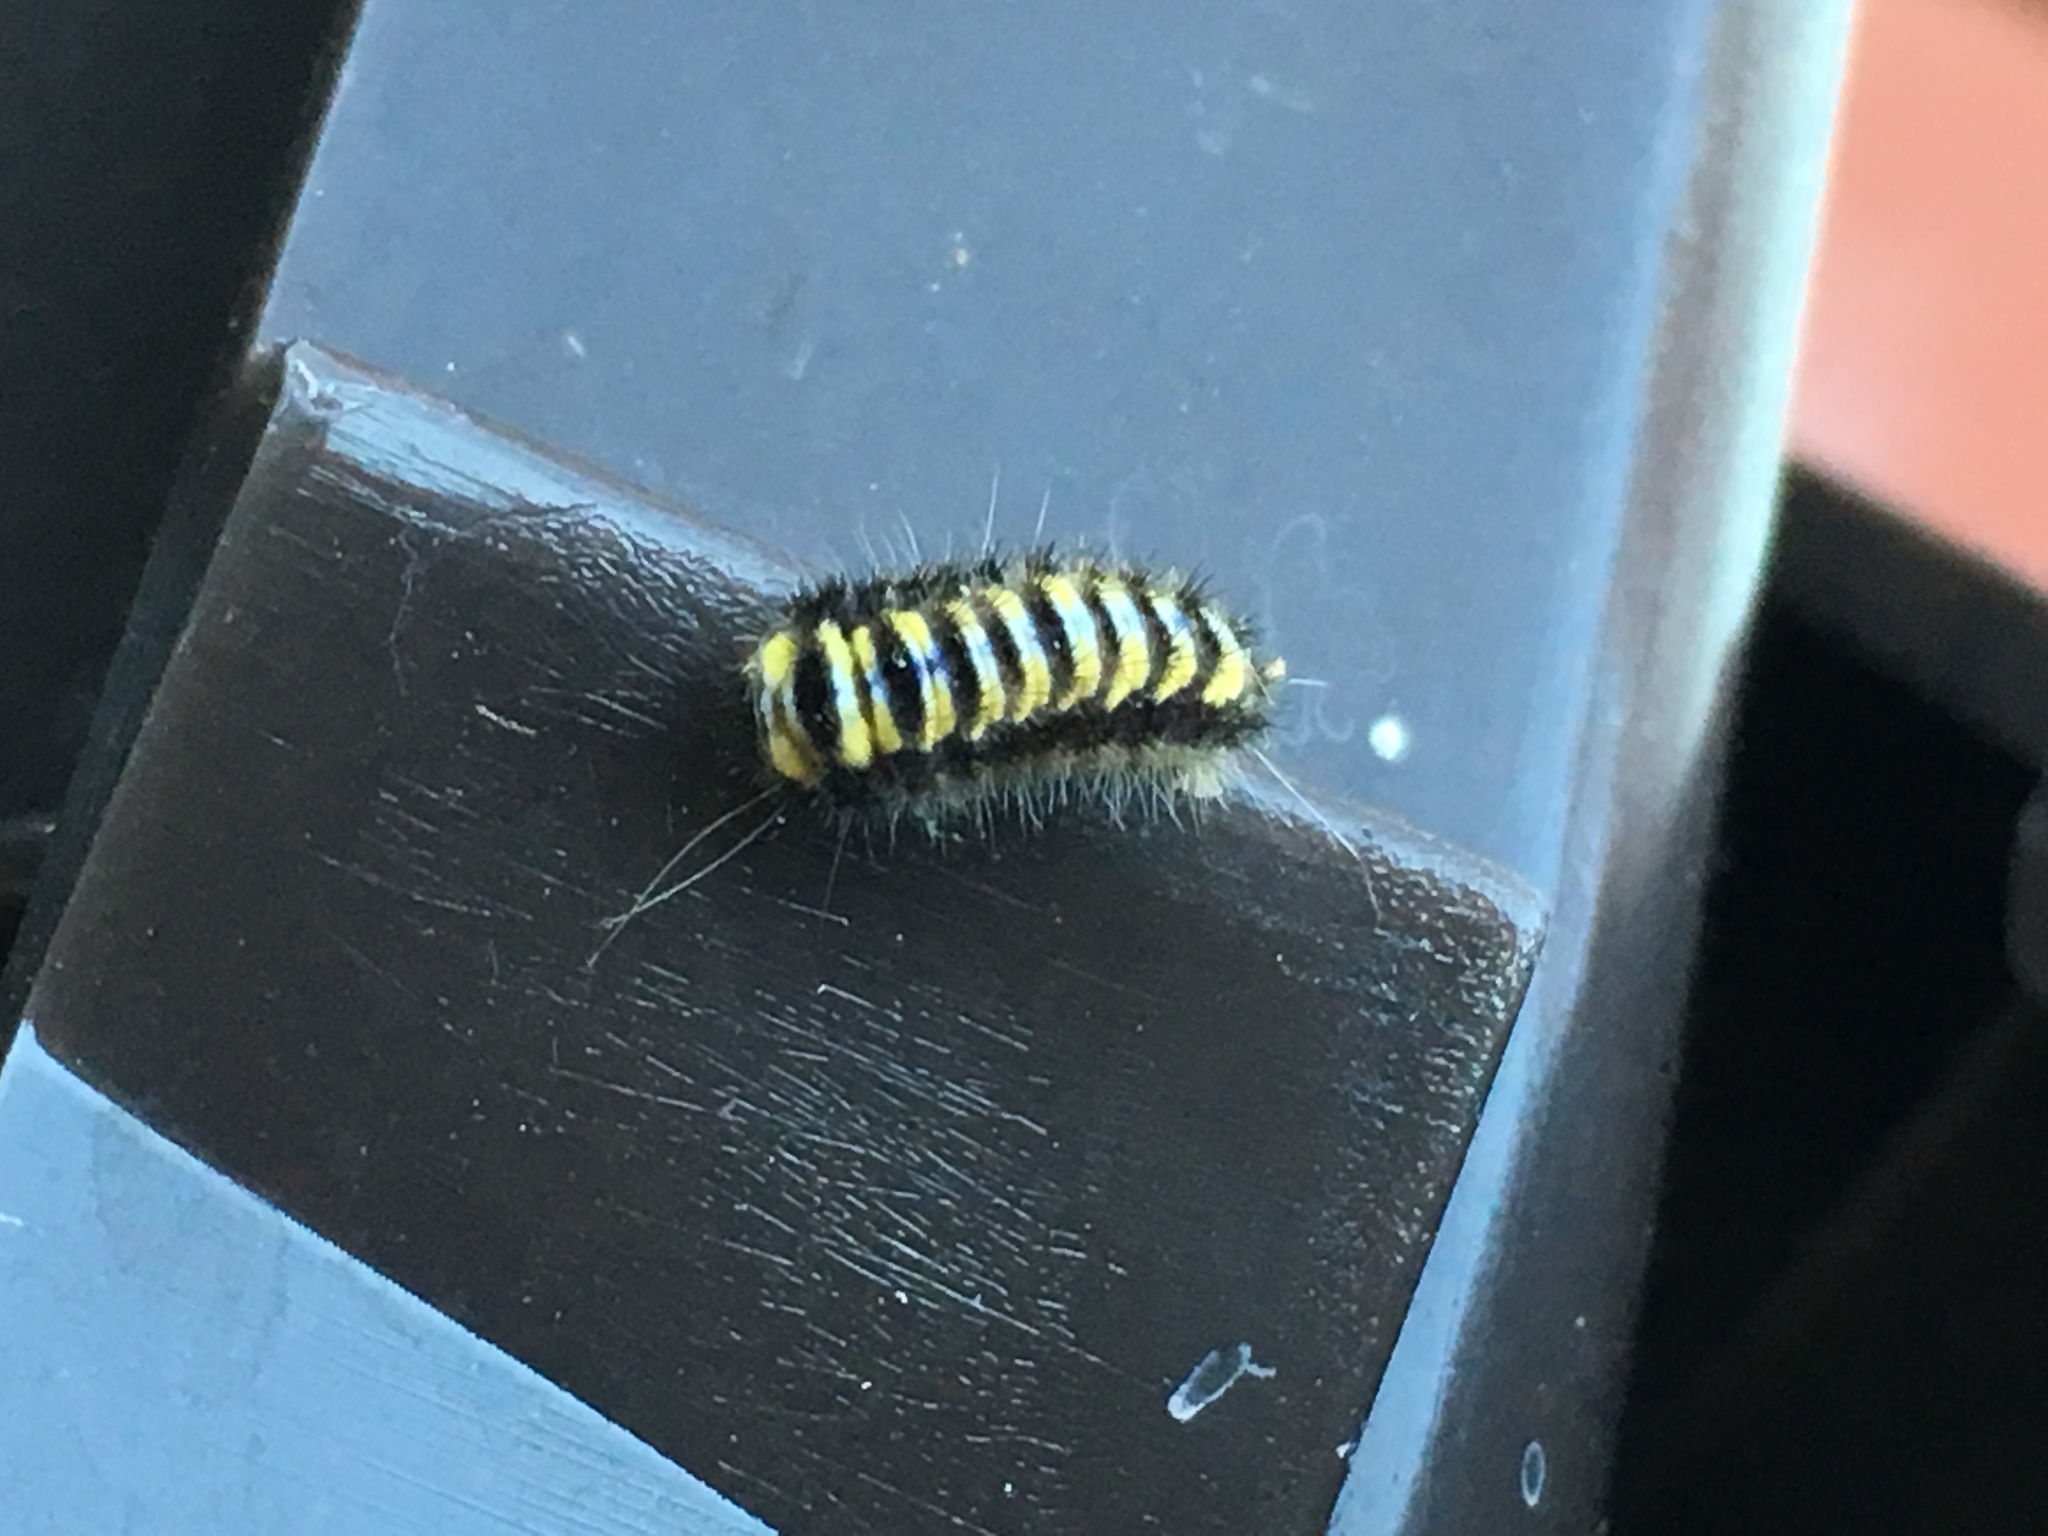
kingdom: Animalia
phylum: Arthropoda
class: Insecta
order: Lepidoptera
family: Zygaenidae
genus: Harrisina
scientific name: Harrisina americana
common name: Grapeleaf skeletonizer moth
